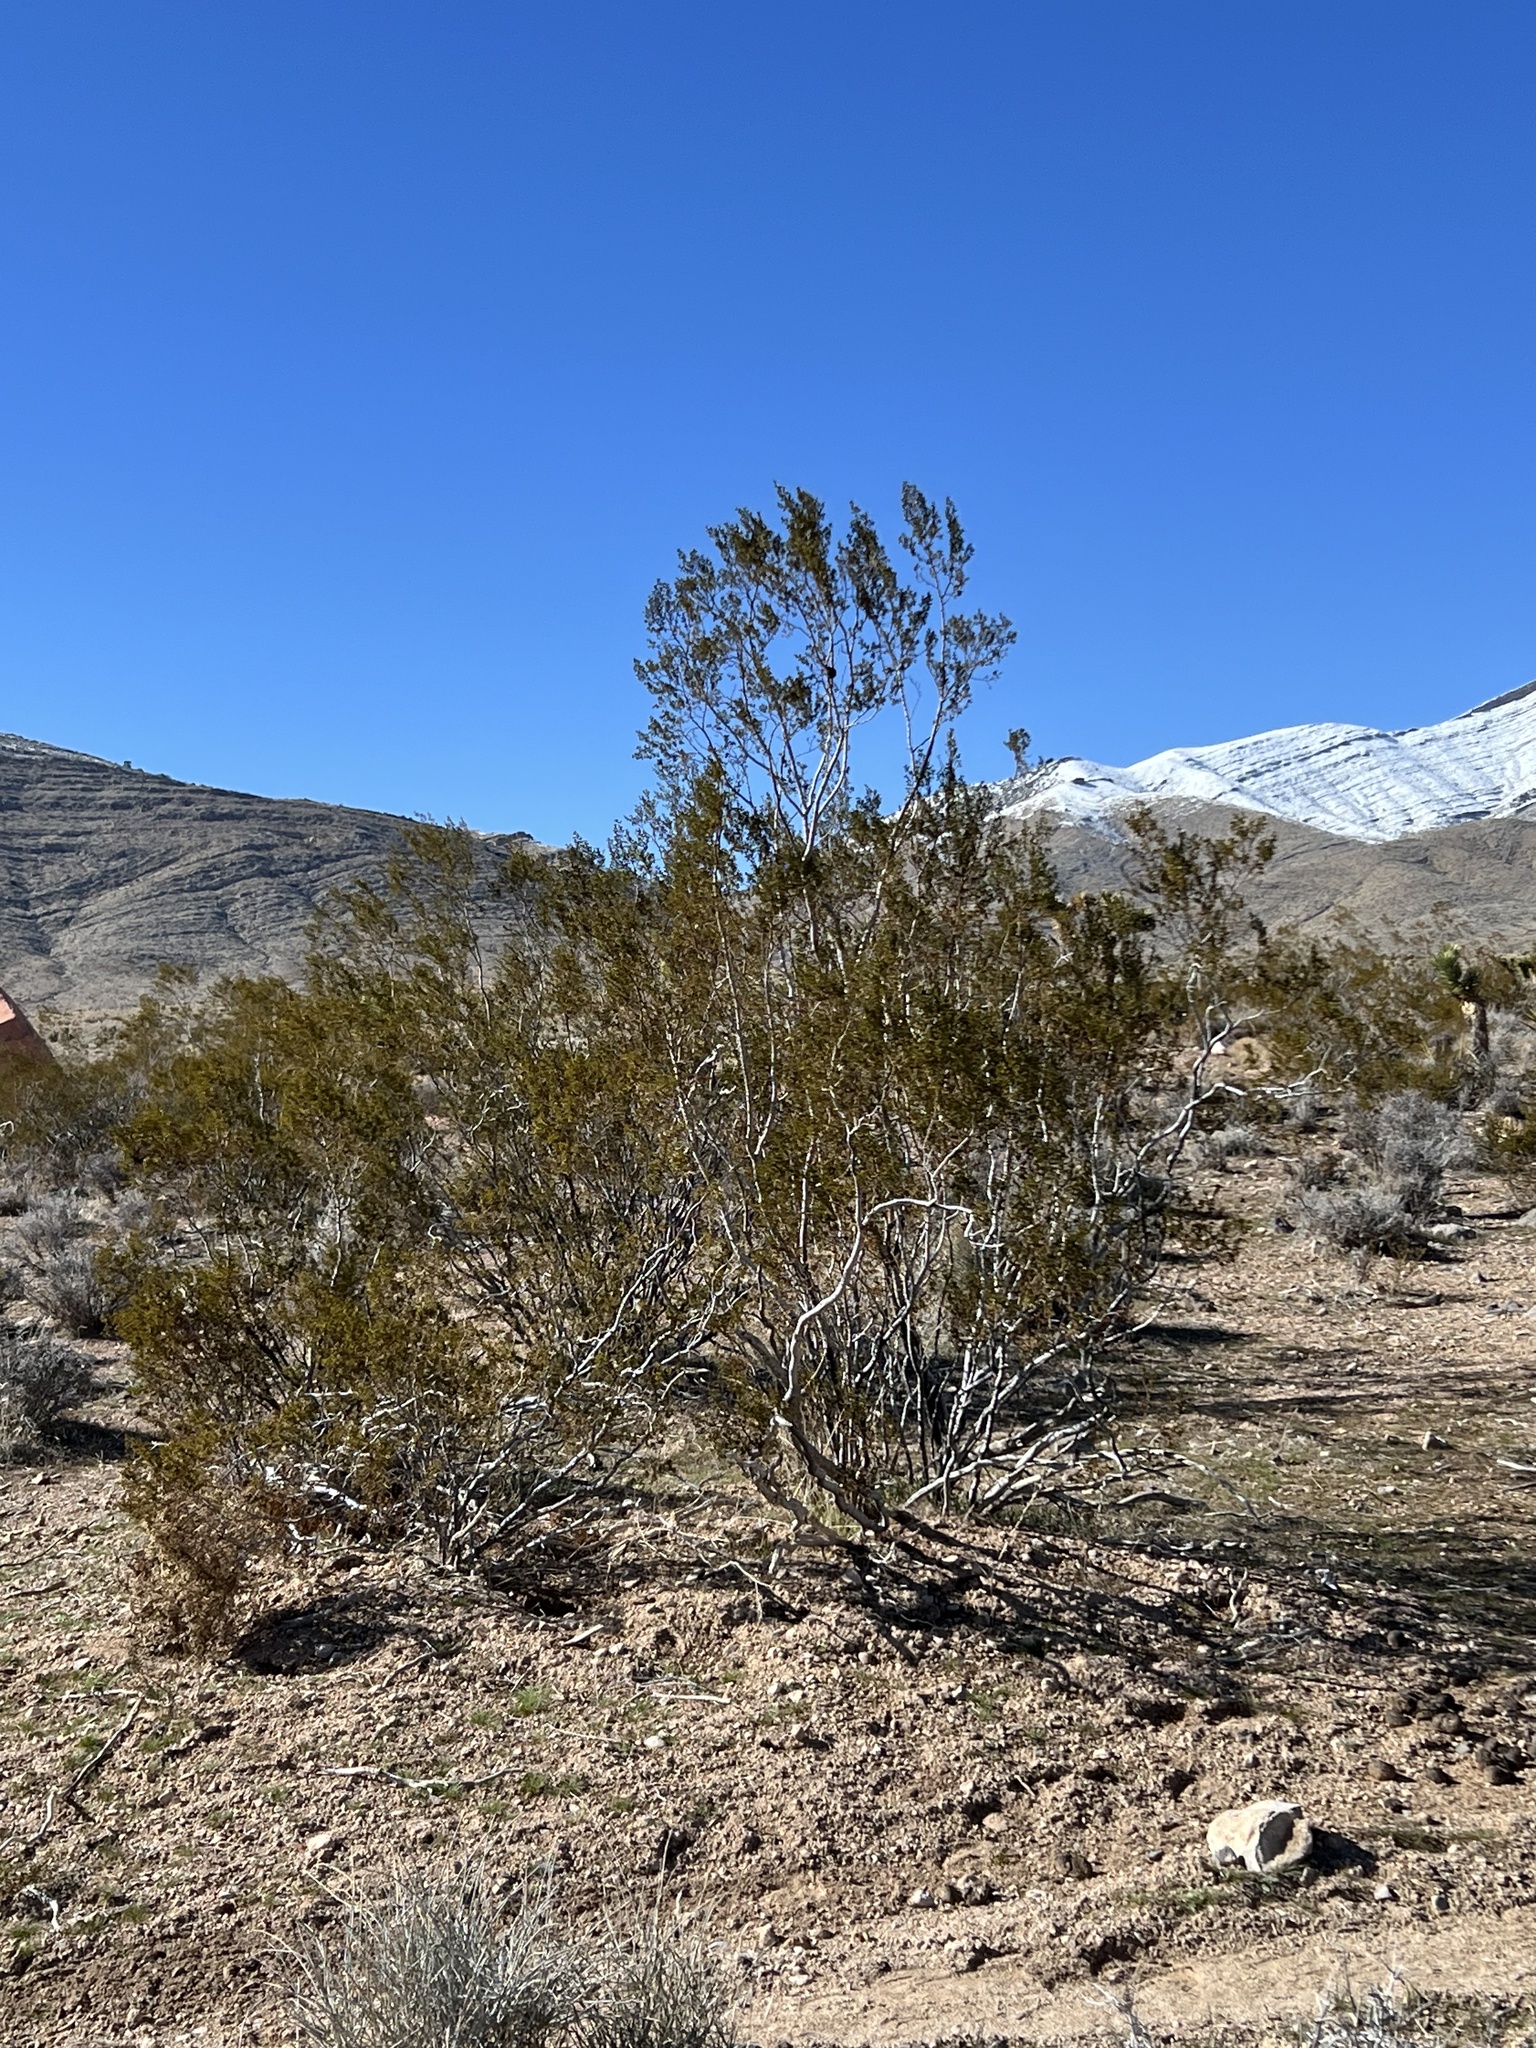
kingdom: Plantae
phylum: Tracheophyta
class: Magnoliopsida
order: Zygophyllales
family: Zygophyllaceae
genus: Larrea
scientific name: Larrea tridentata
